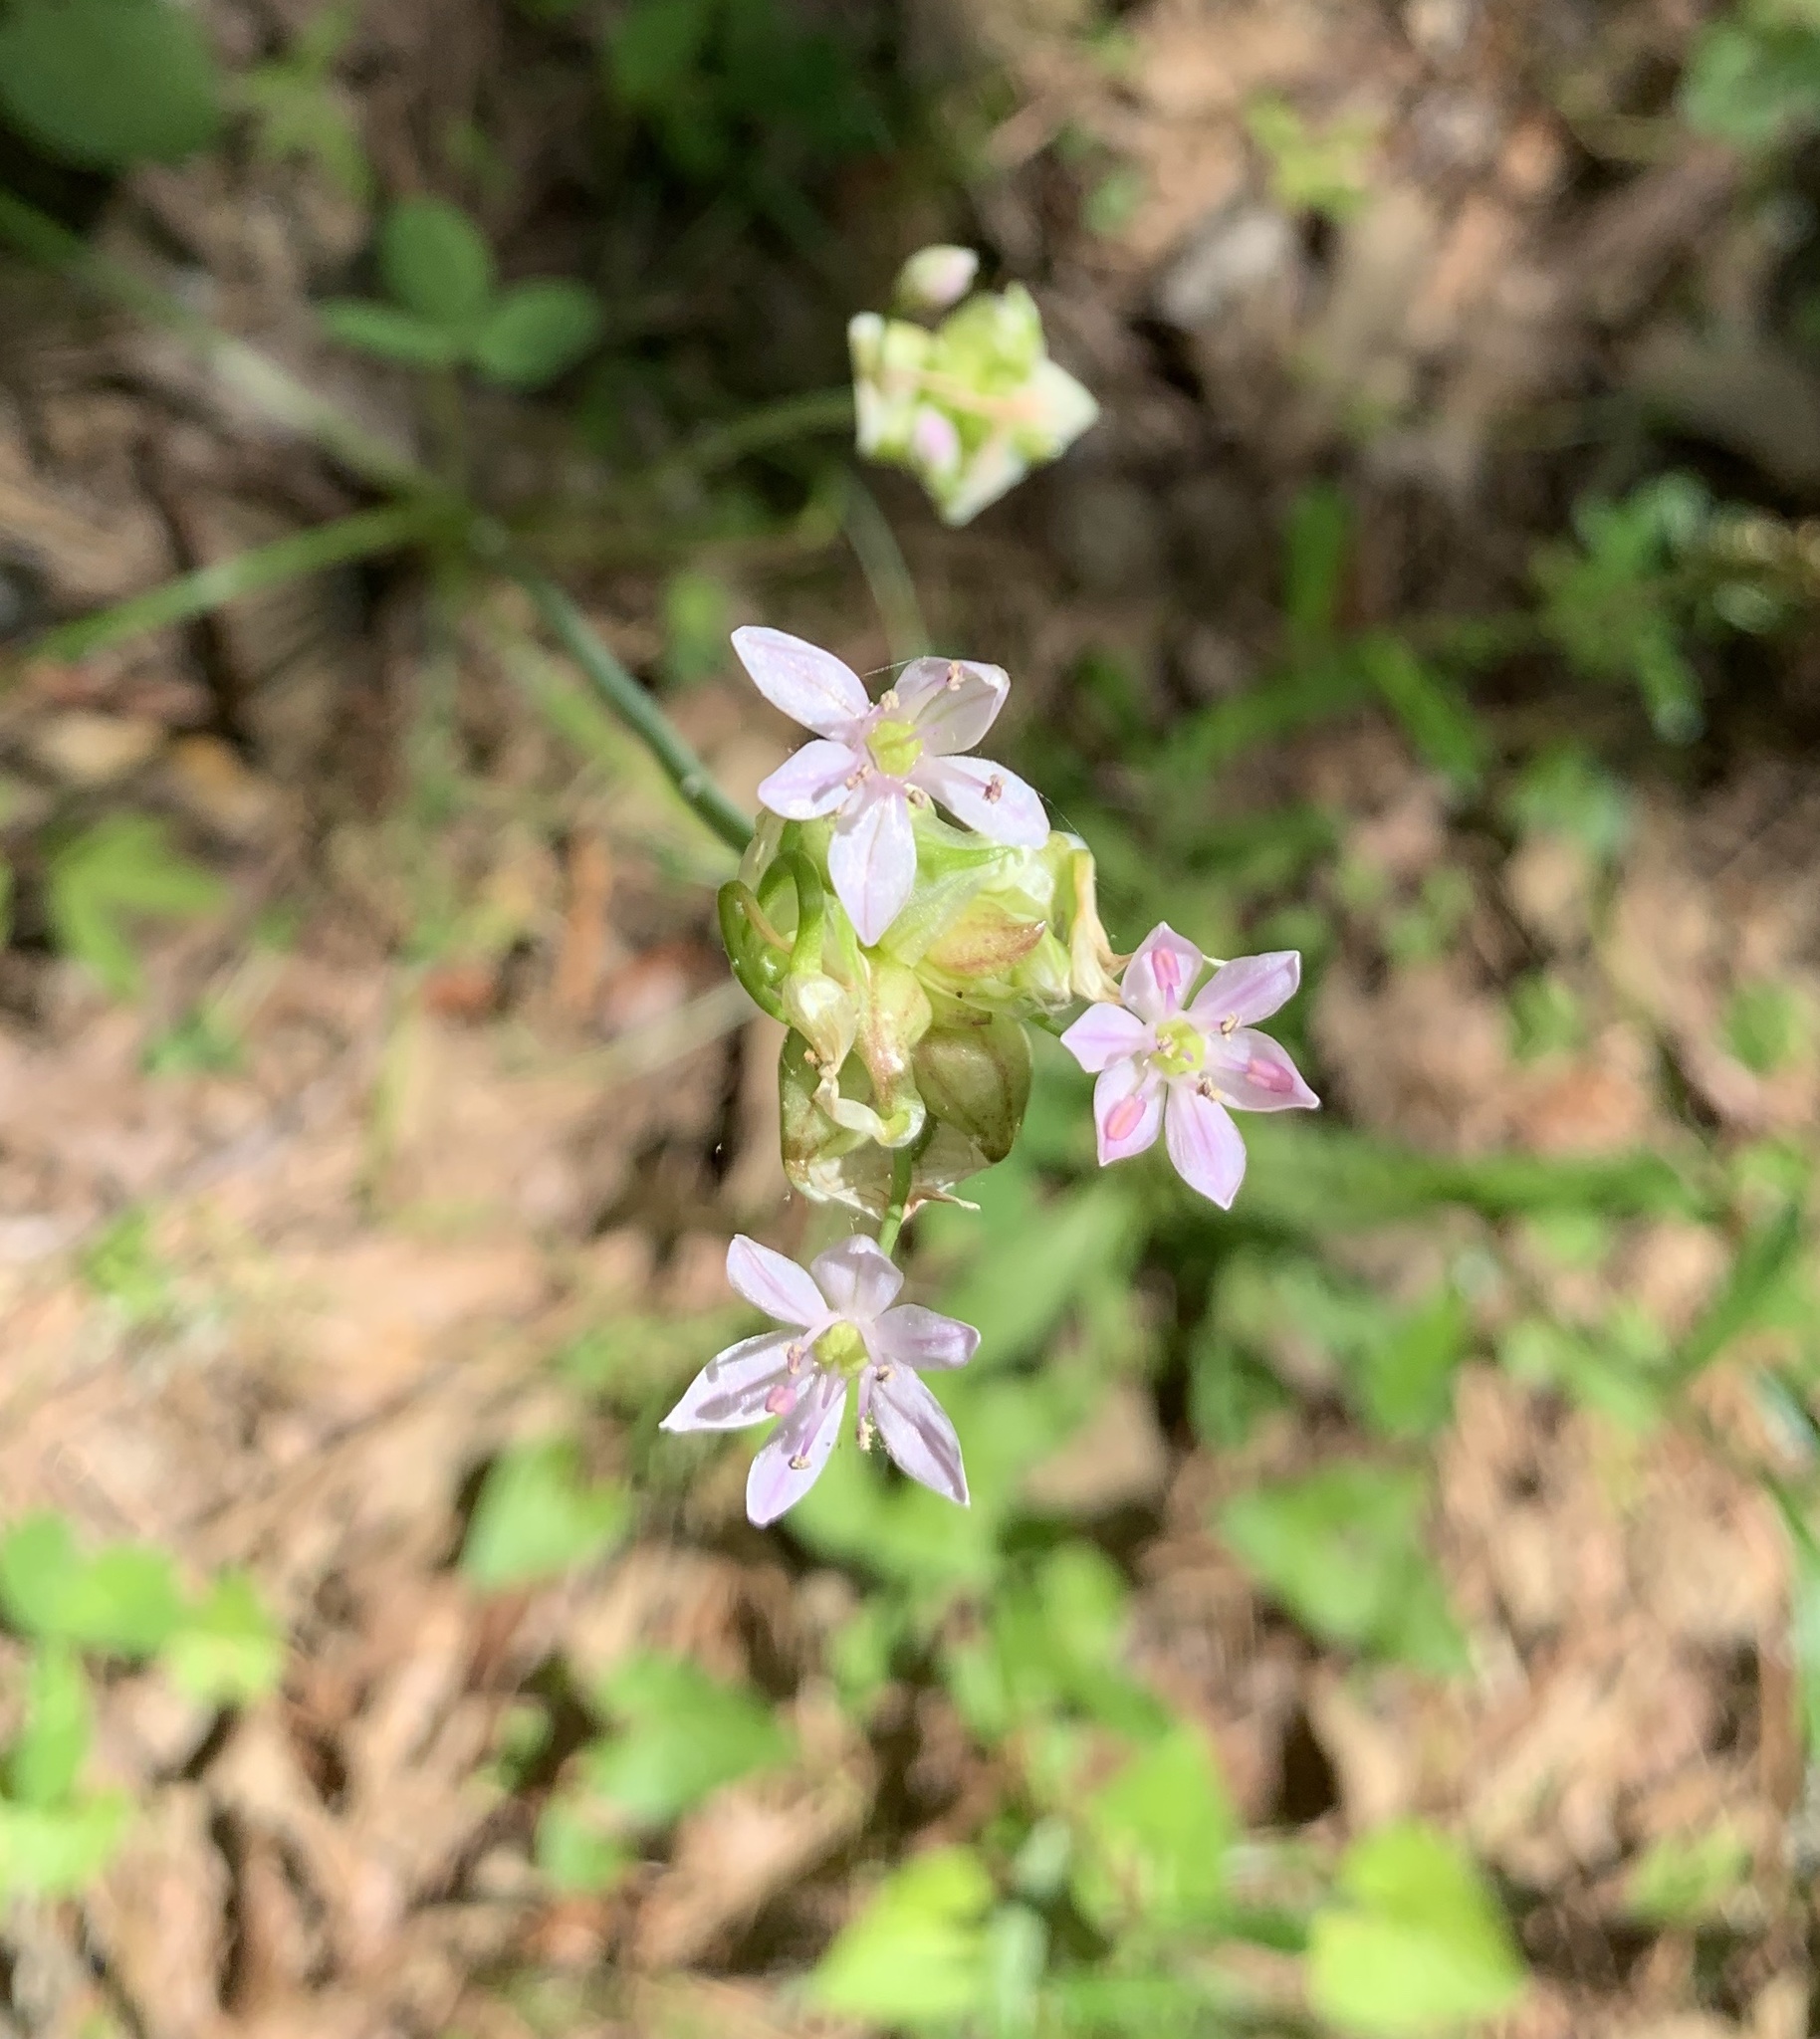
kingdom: Plantae
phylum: Tracheophyta
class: Liliopsida
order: Asparagales
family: Amaryllidaceae
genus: Allium
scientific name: Allium canadense
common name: Meadow garlic
